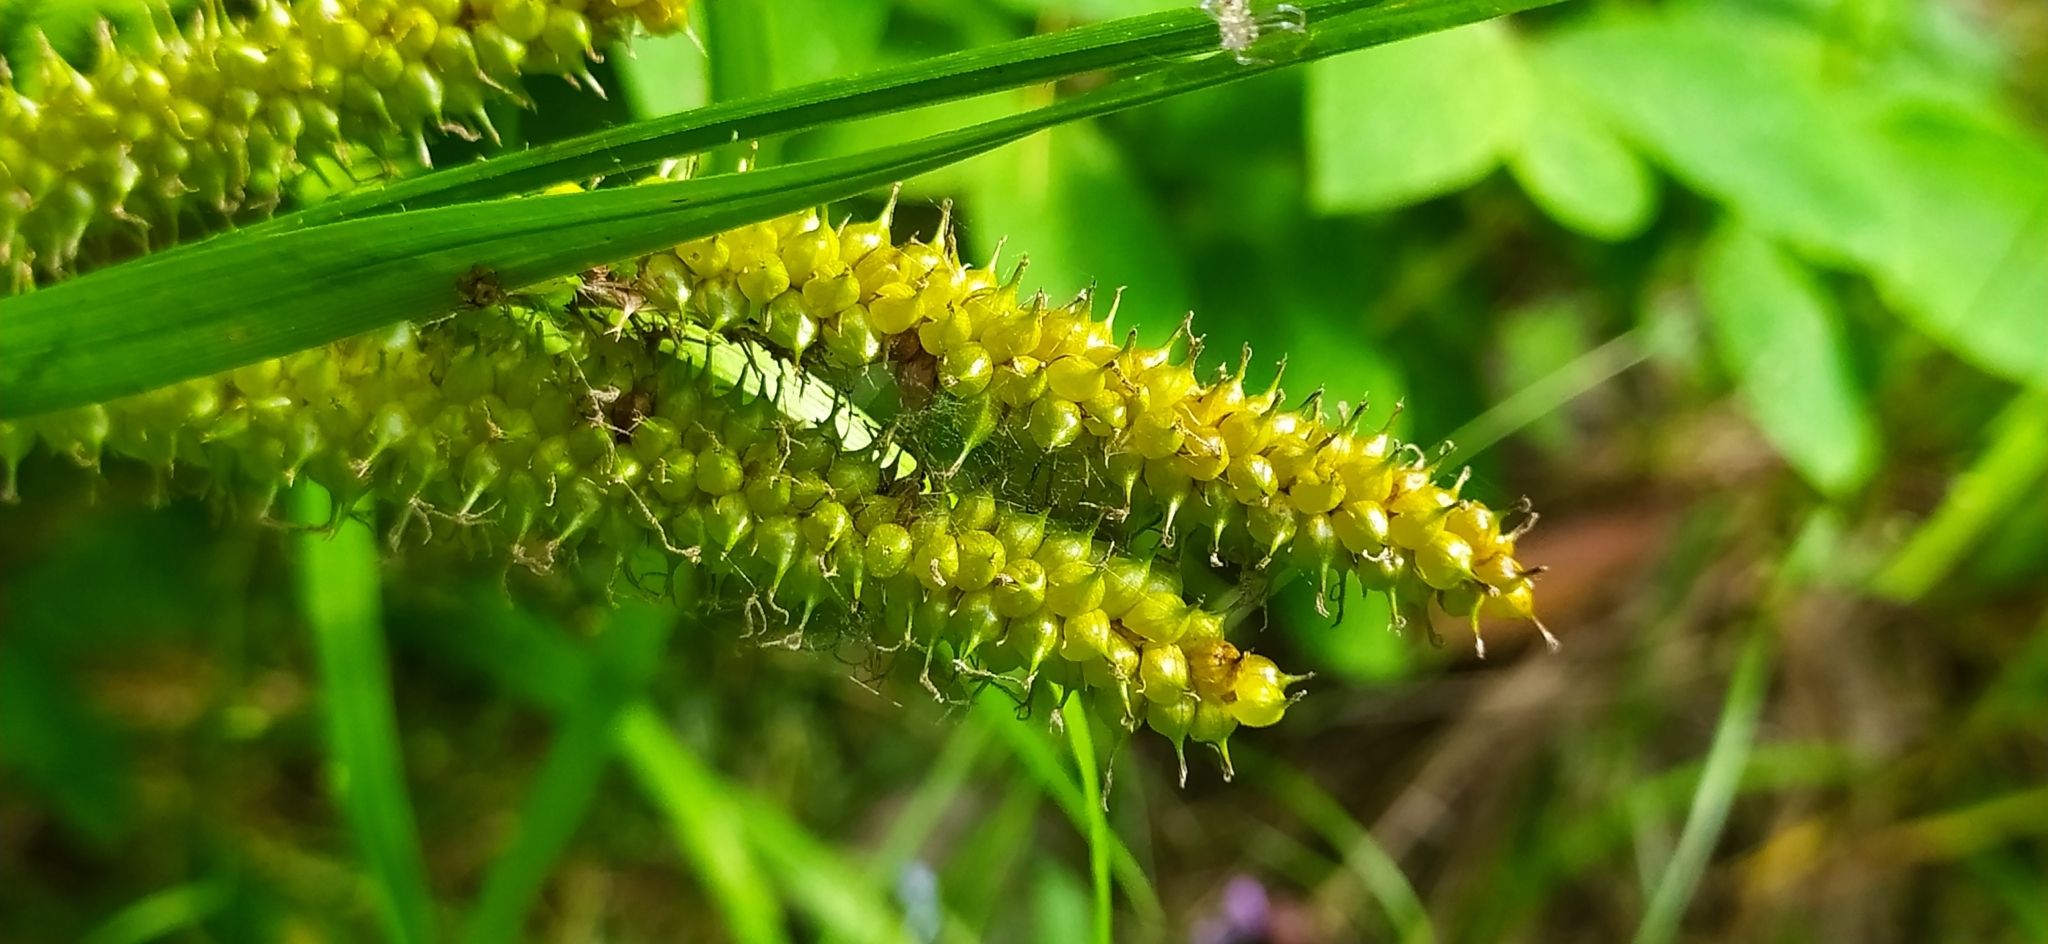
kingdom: Plantae
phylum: Tracheophyta
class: Liliopsida
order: Poales
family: Cyperaceae
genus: Carex
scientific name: Carex utriculata
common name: Beaked sedge
